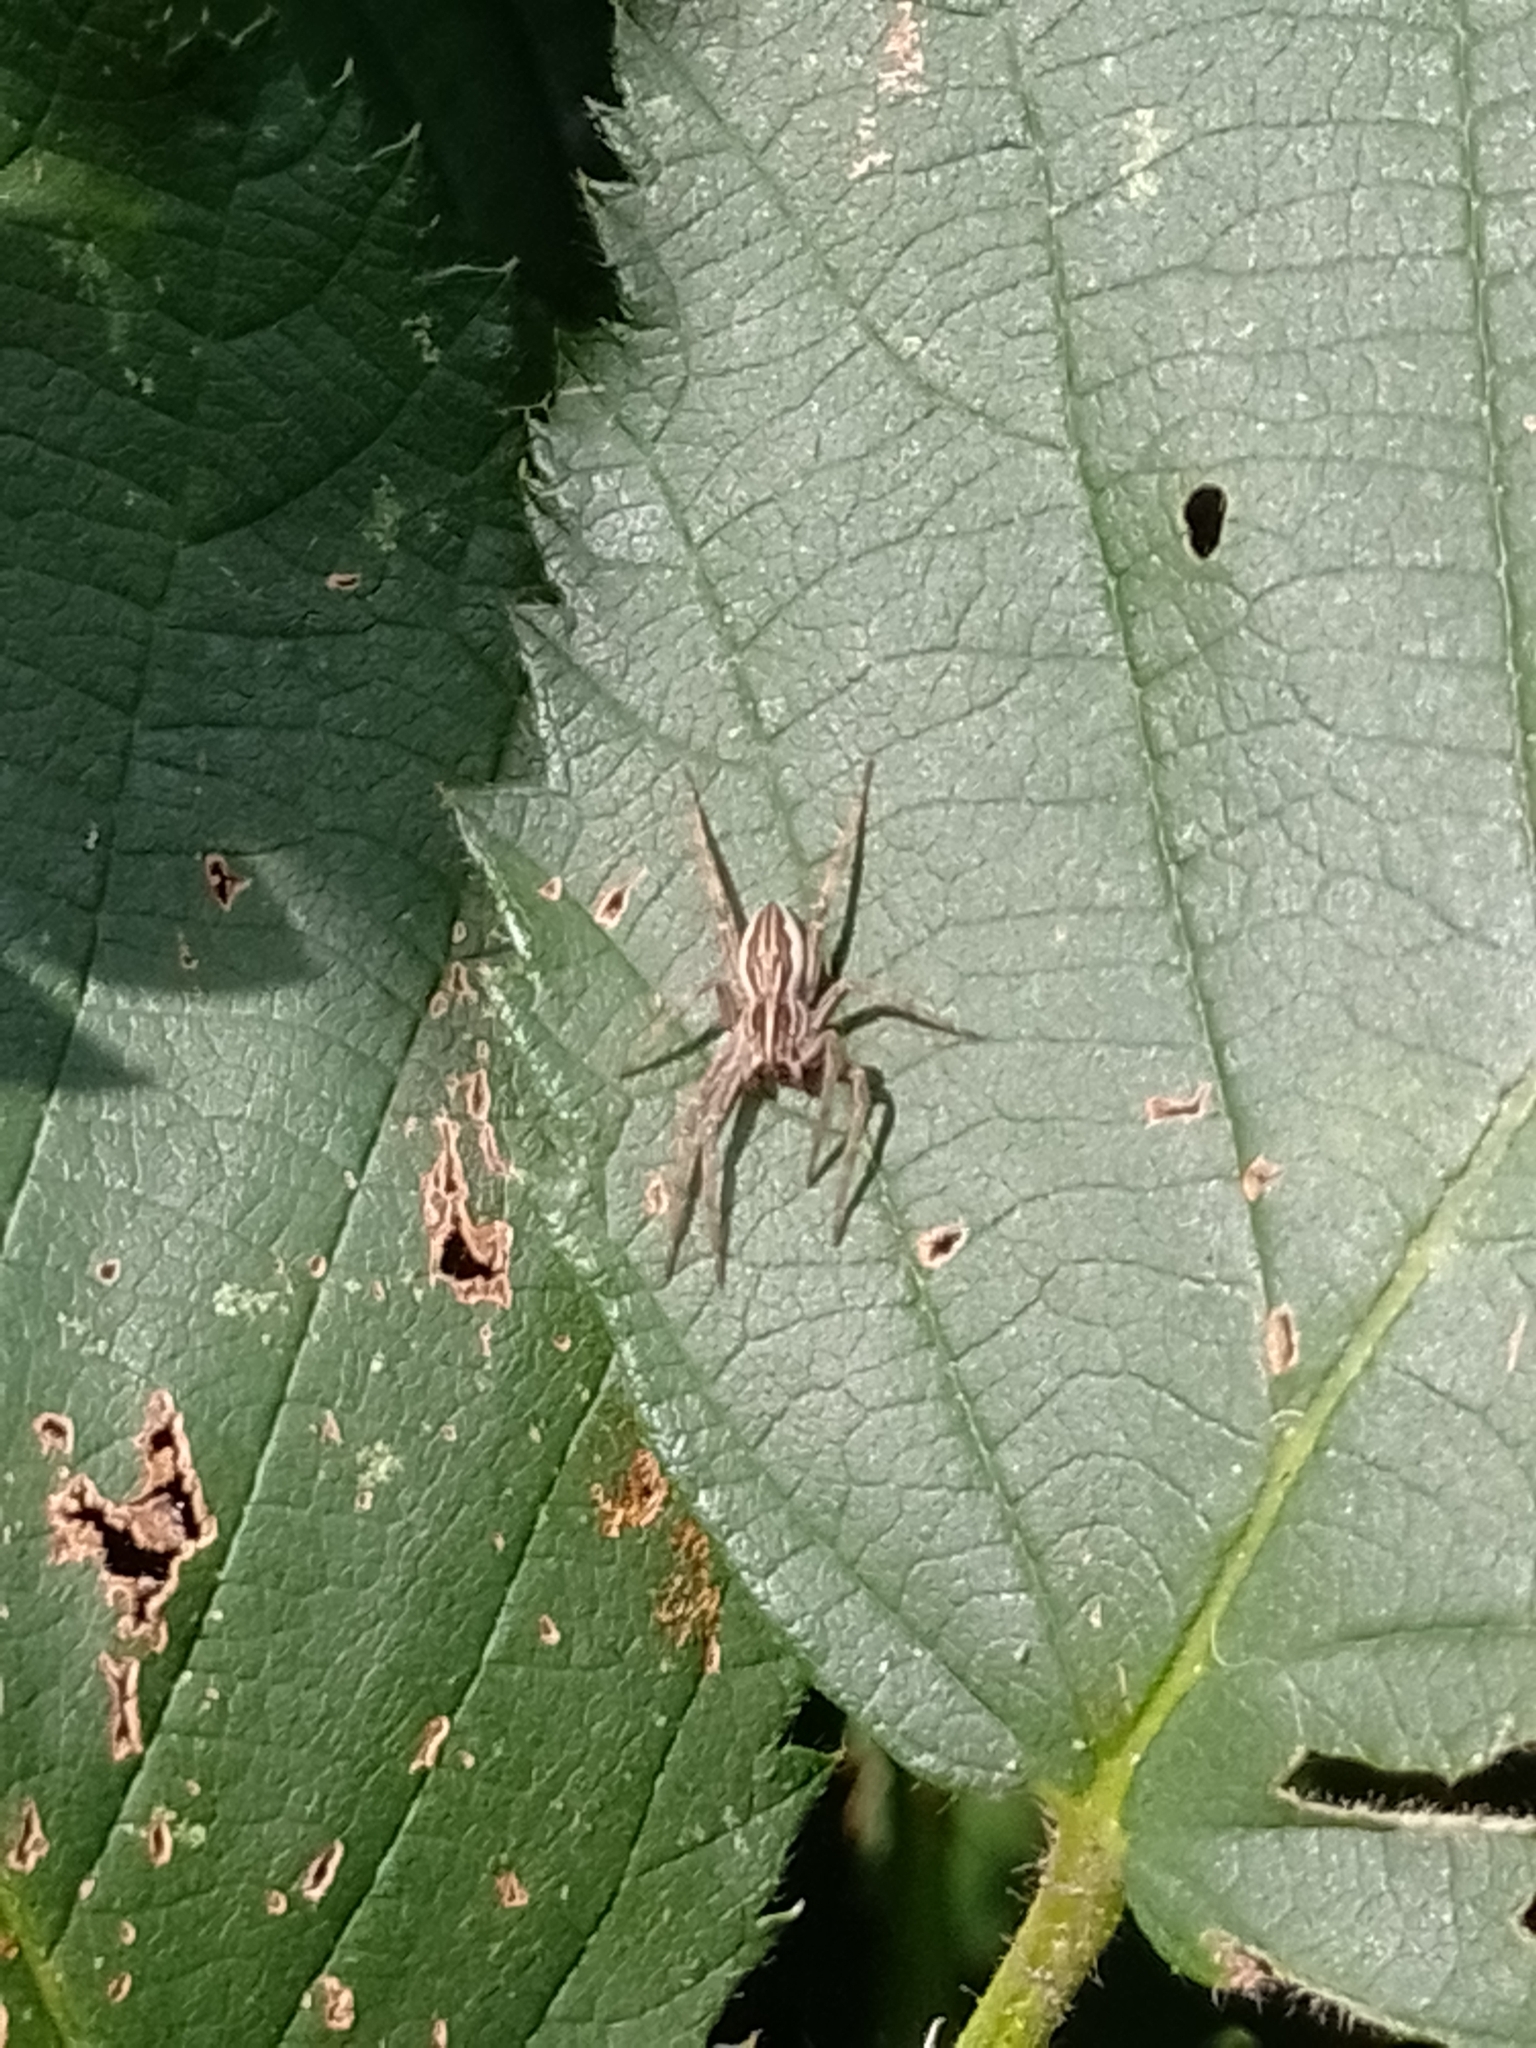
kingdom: Animalia
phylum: Arthropoda
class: Arachnida
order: Araneae
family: Pisauridae
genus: Pisaura
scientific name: Pisaura mirabilis
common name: Tent spider
